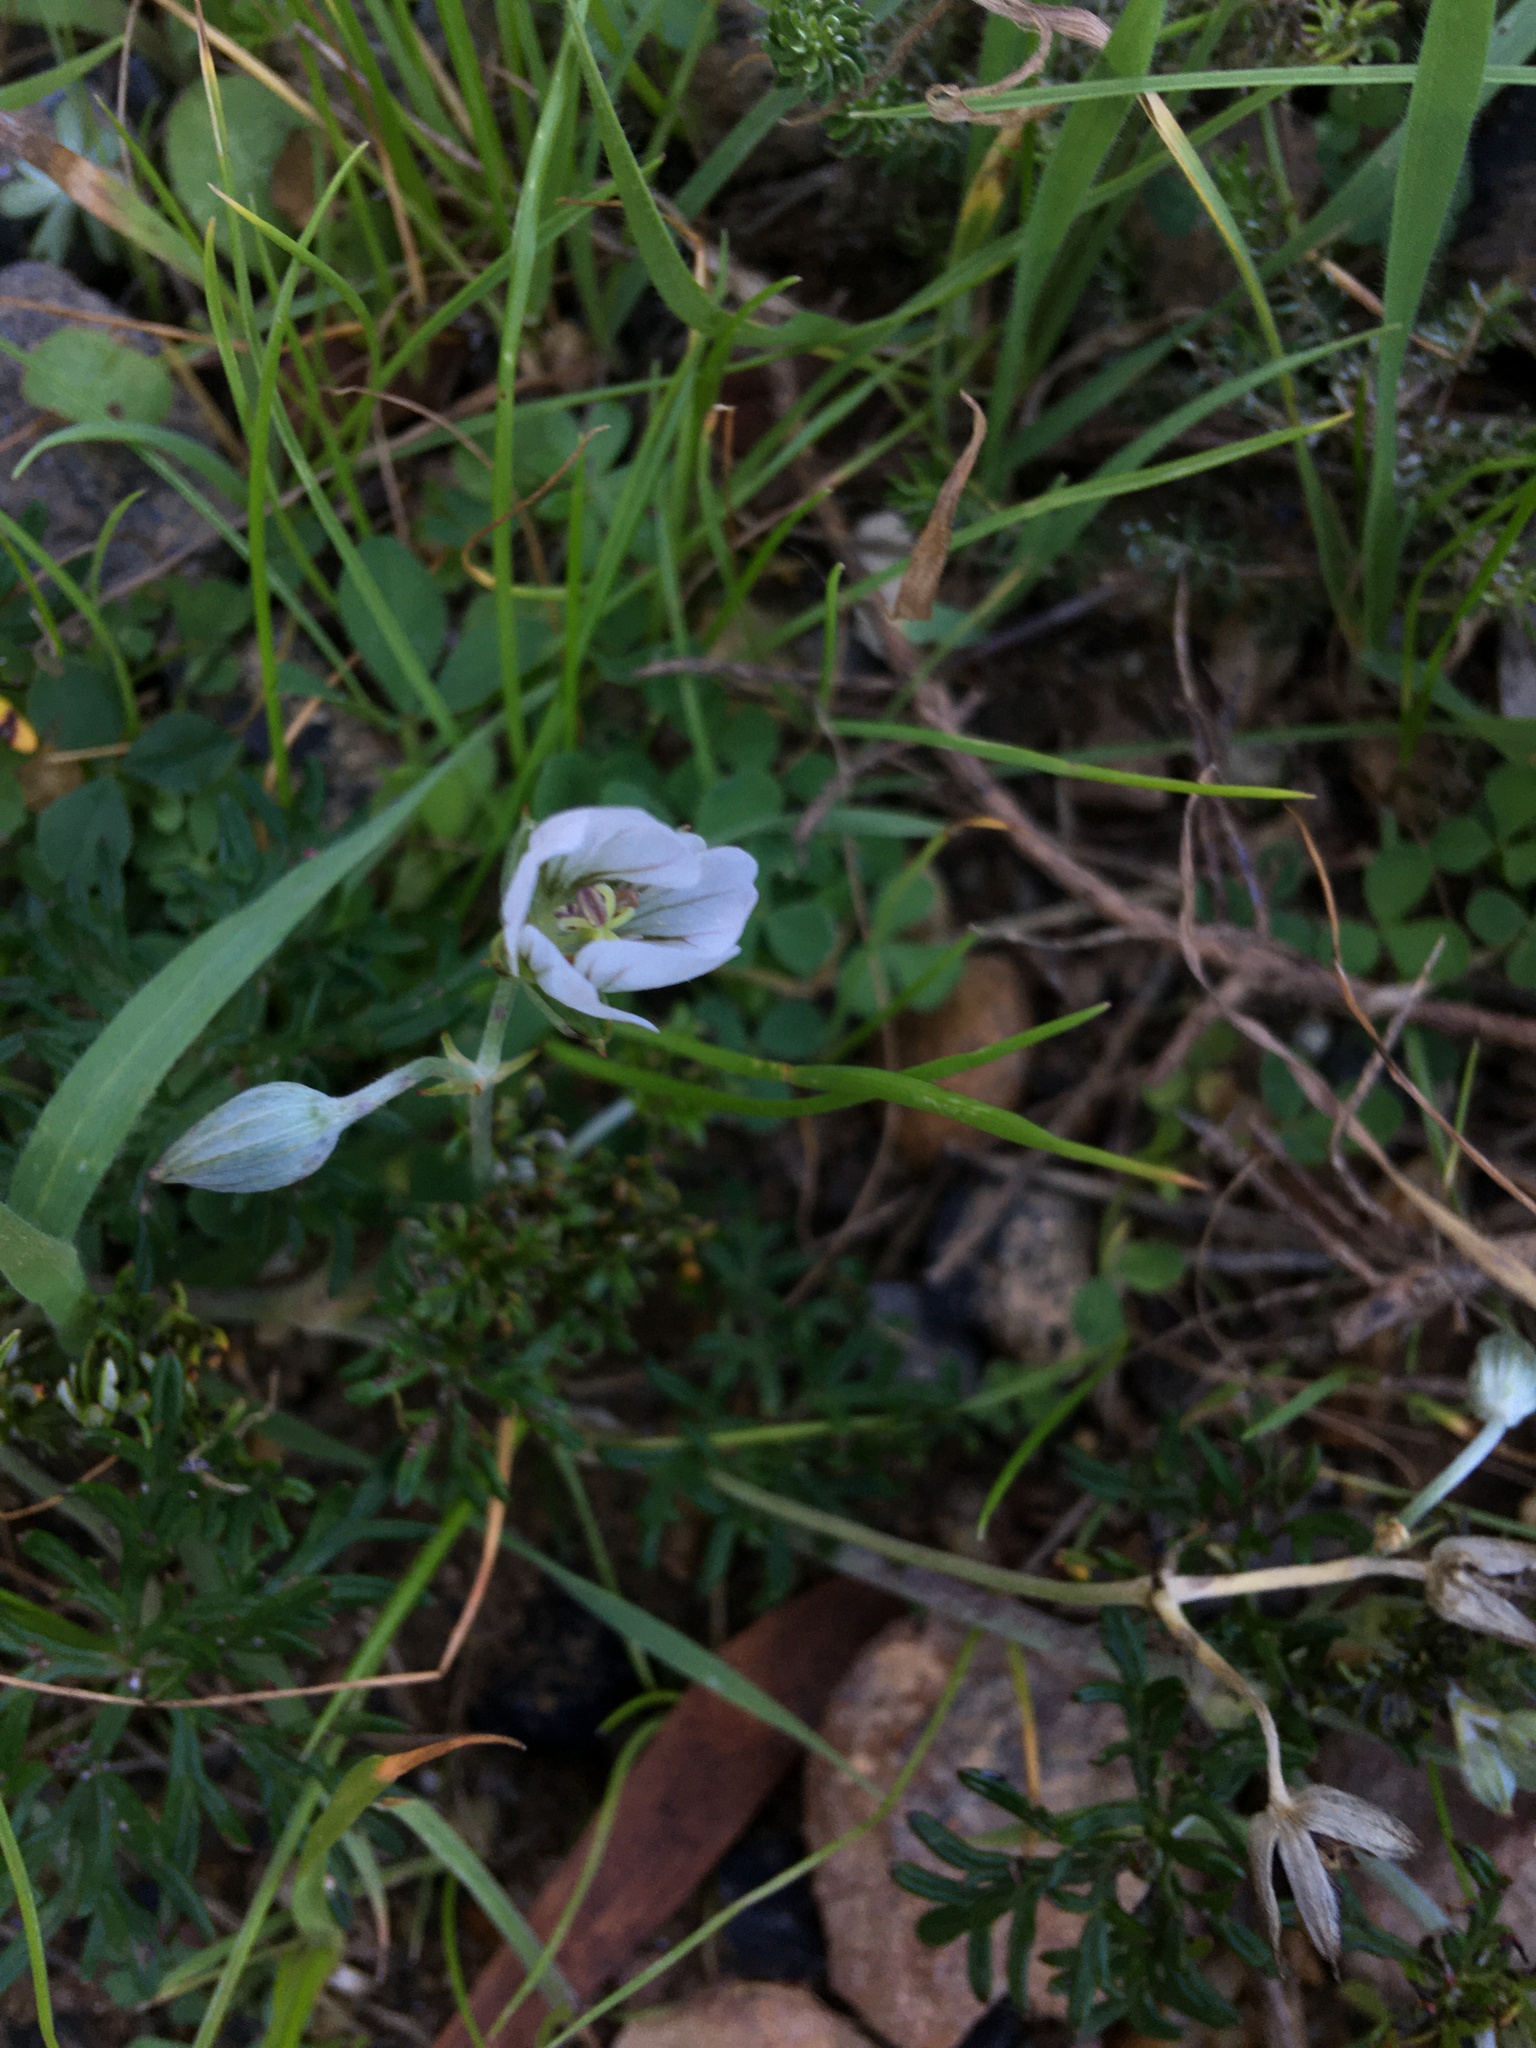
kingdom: Plantae
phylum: Tracheophyta
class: Magnoliopsida
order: Geraniales
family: Geraniaceae
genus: Geranium
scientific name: Geranium incanum
